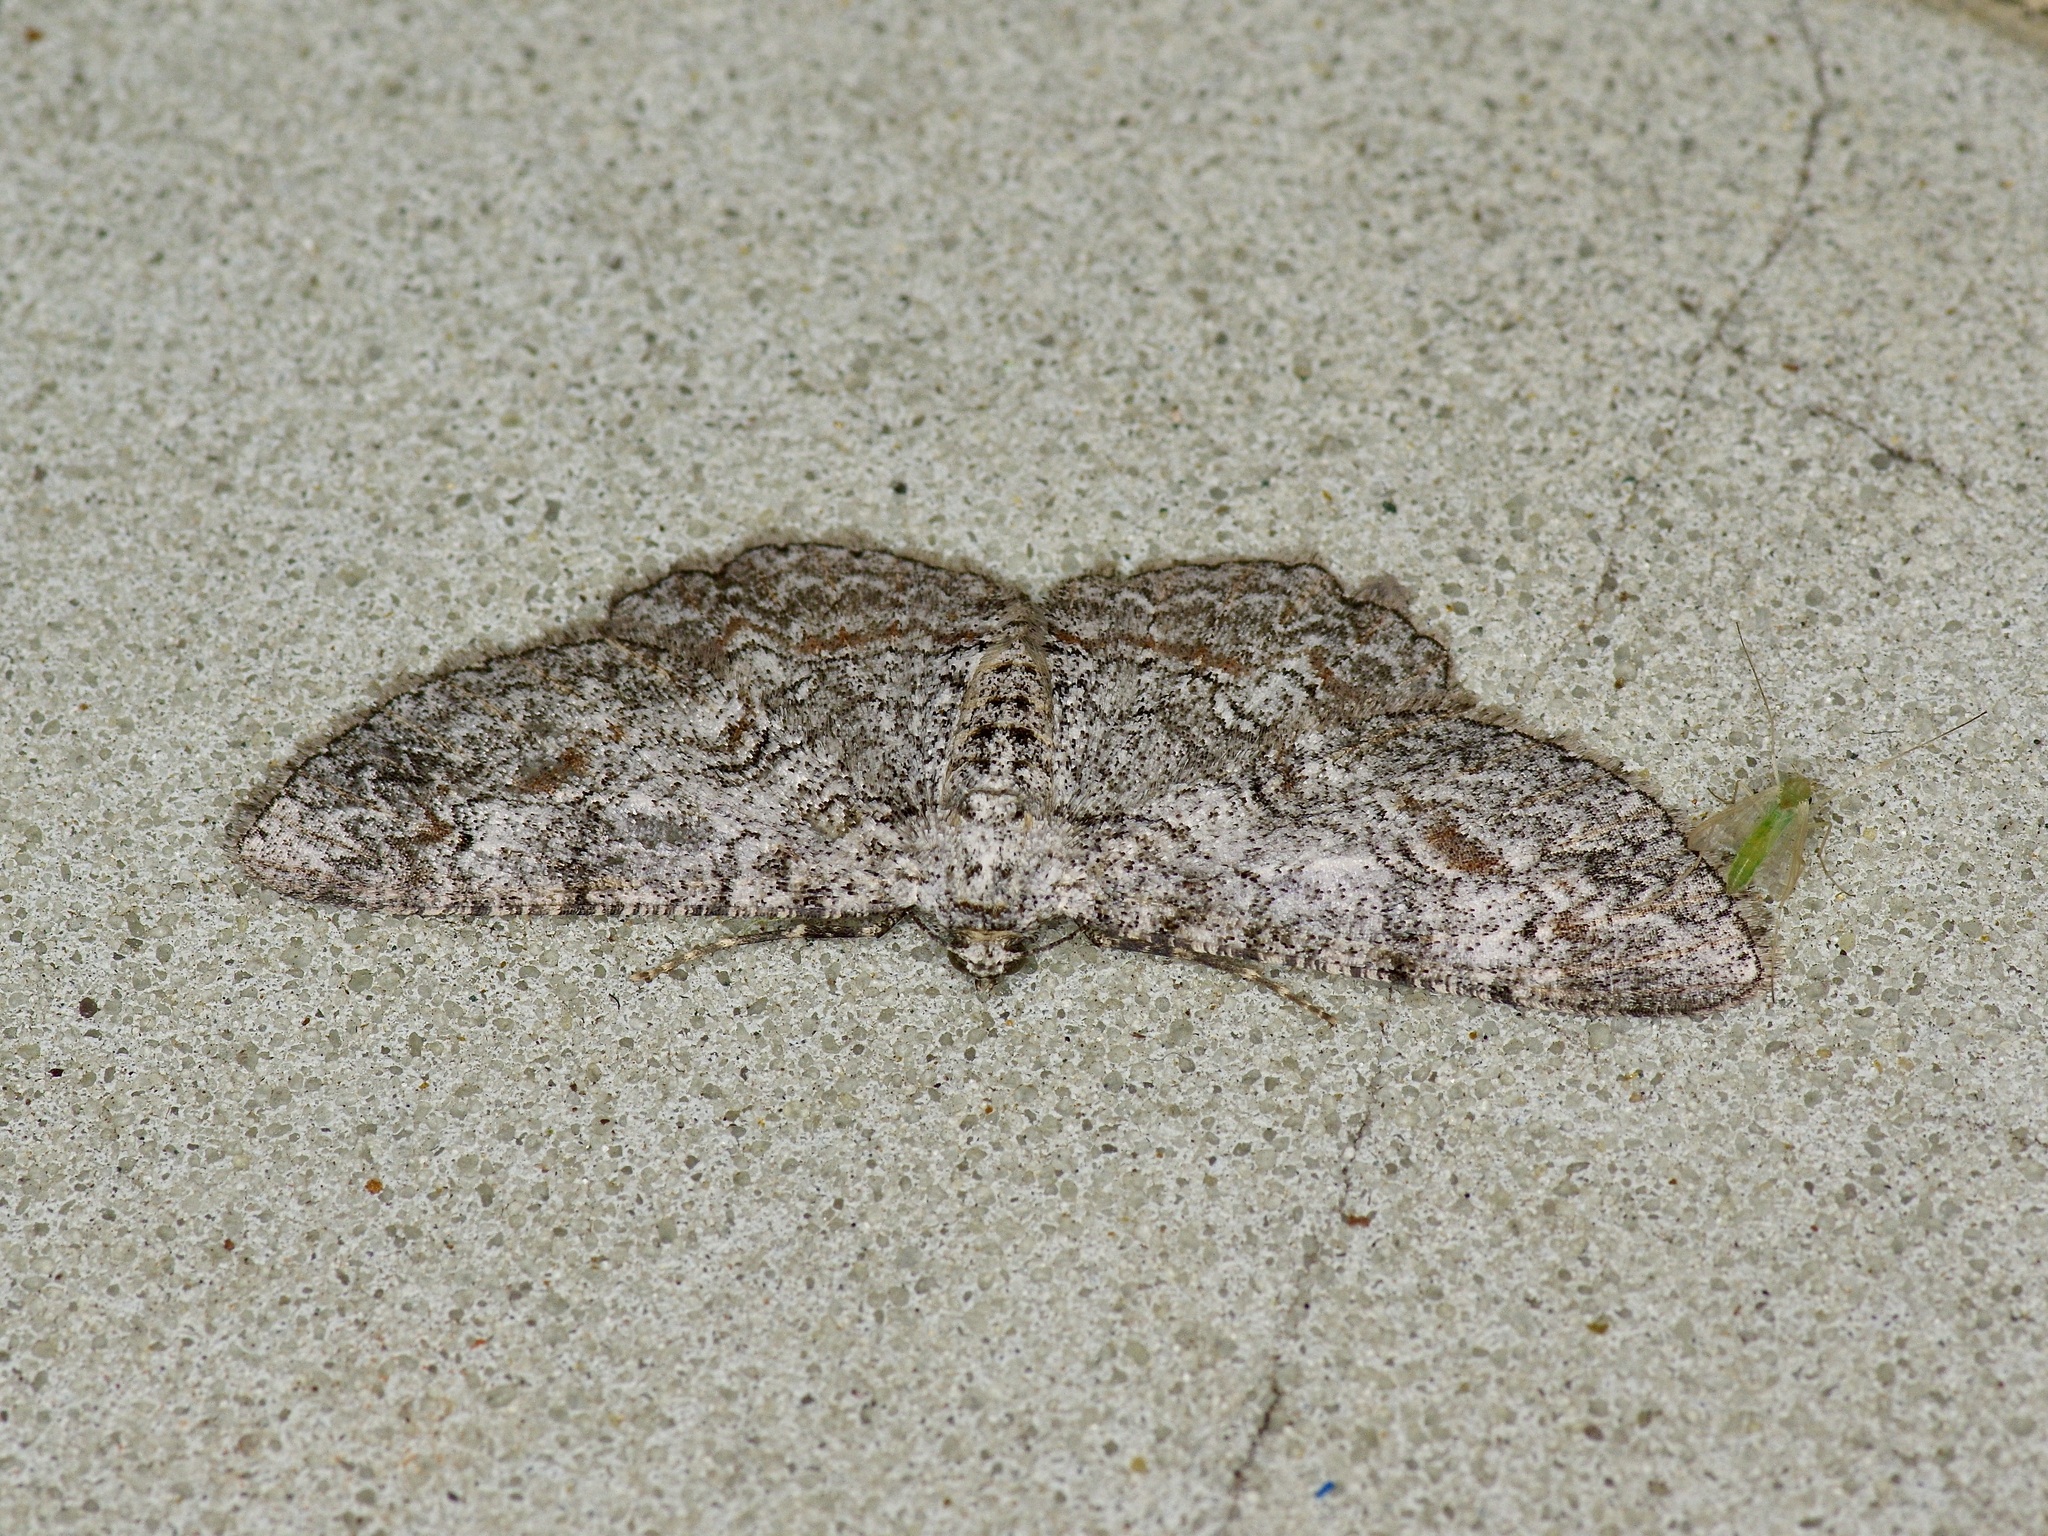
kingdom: Animalia
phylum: Arthropoda
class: Insecta
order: Lepidoptera
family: Geometridae
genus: Iridopsis
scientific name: Iridopsis defectaria
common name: Brown-shaded gray
